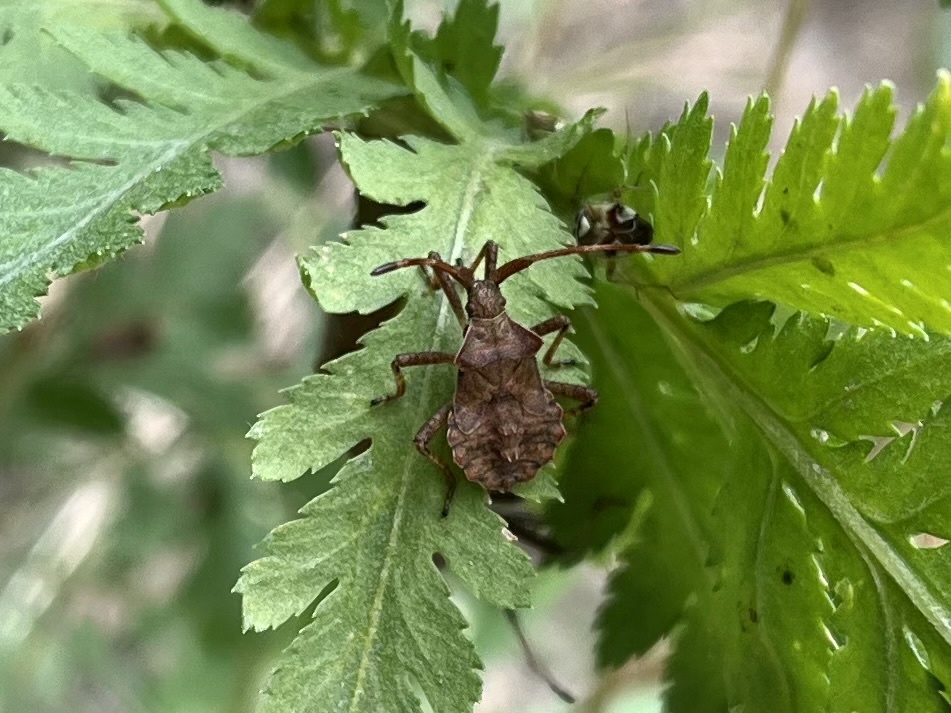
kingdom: Animalia
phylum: Arthropoda
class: Insecta
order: Hemiptera
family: Coreidae
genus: Coreus
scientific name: Coreus marginatus
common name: Dock bug
